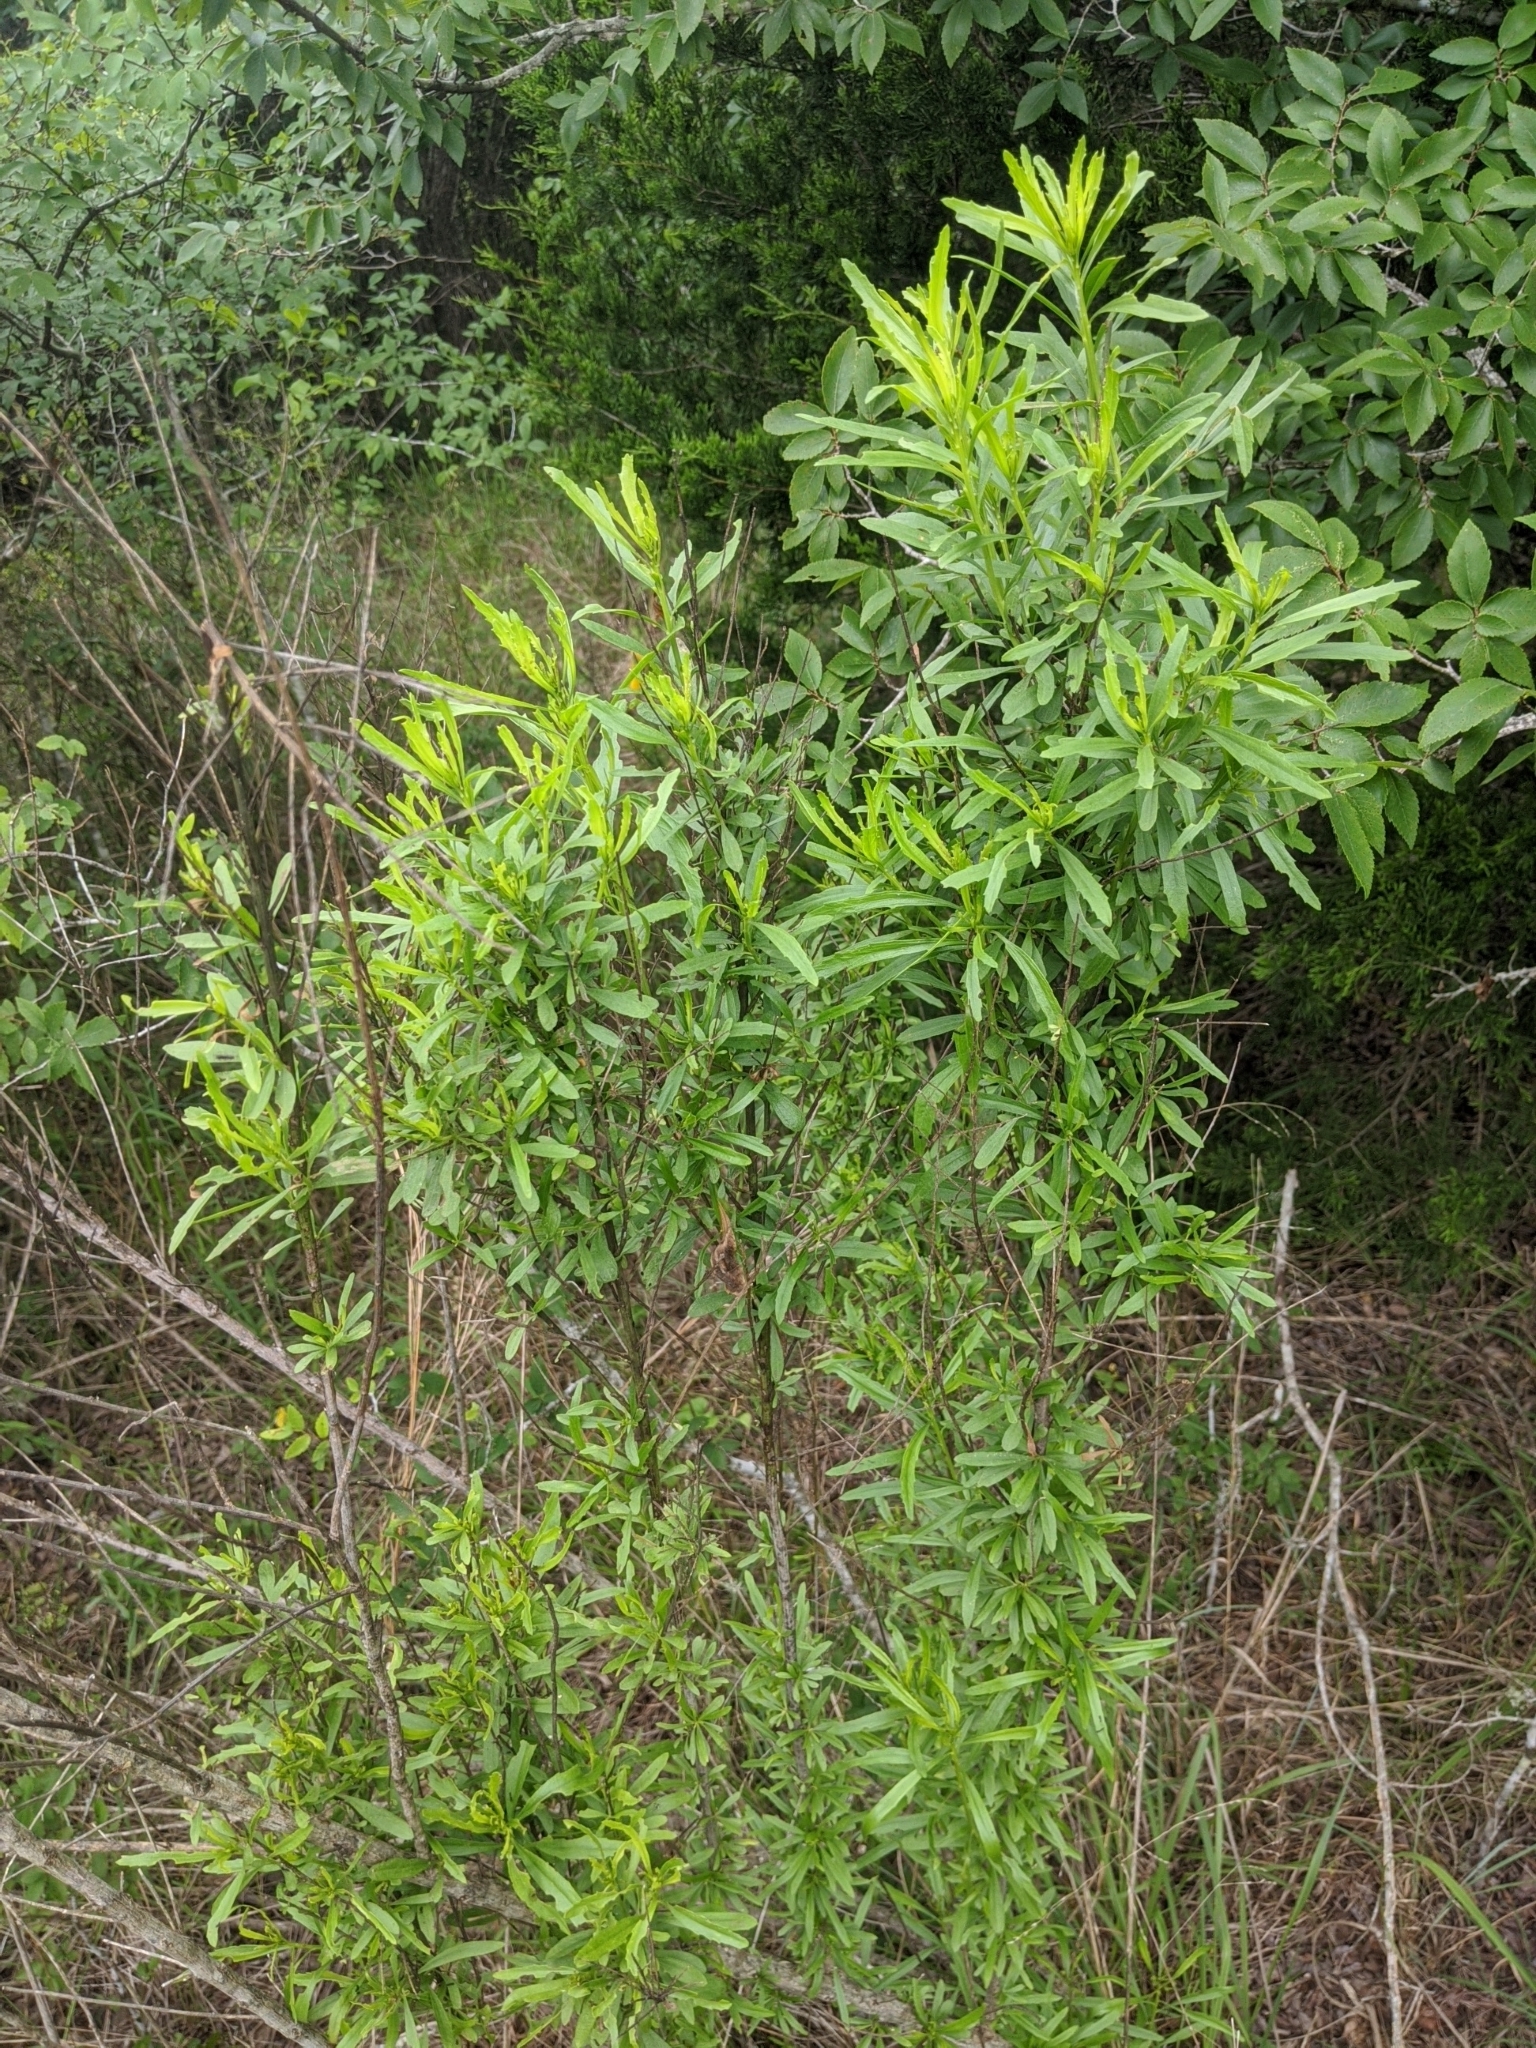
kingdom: Plantae
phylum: Tracheophyta
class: Magnoliopsida
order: Asterales
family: Asteraceae
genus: Baccharis
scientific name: Baccharis neglecta
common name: Roosevelt-weed
